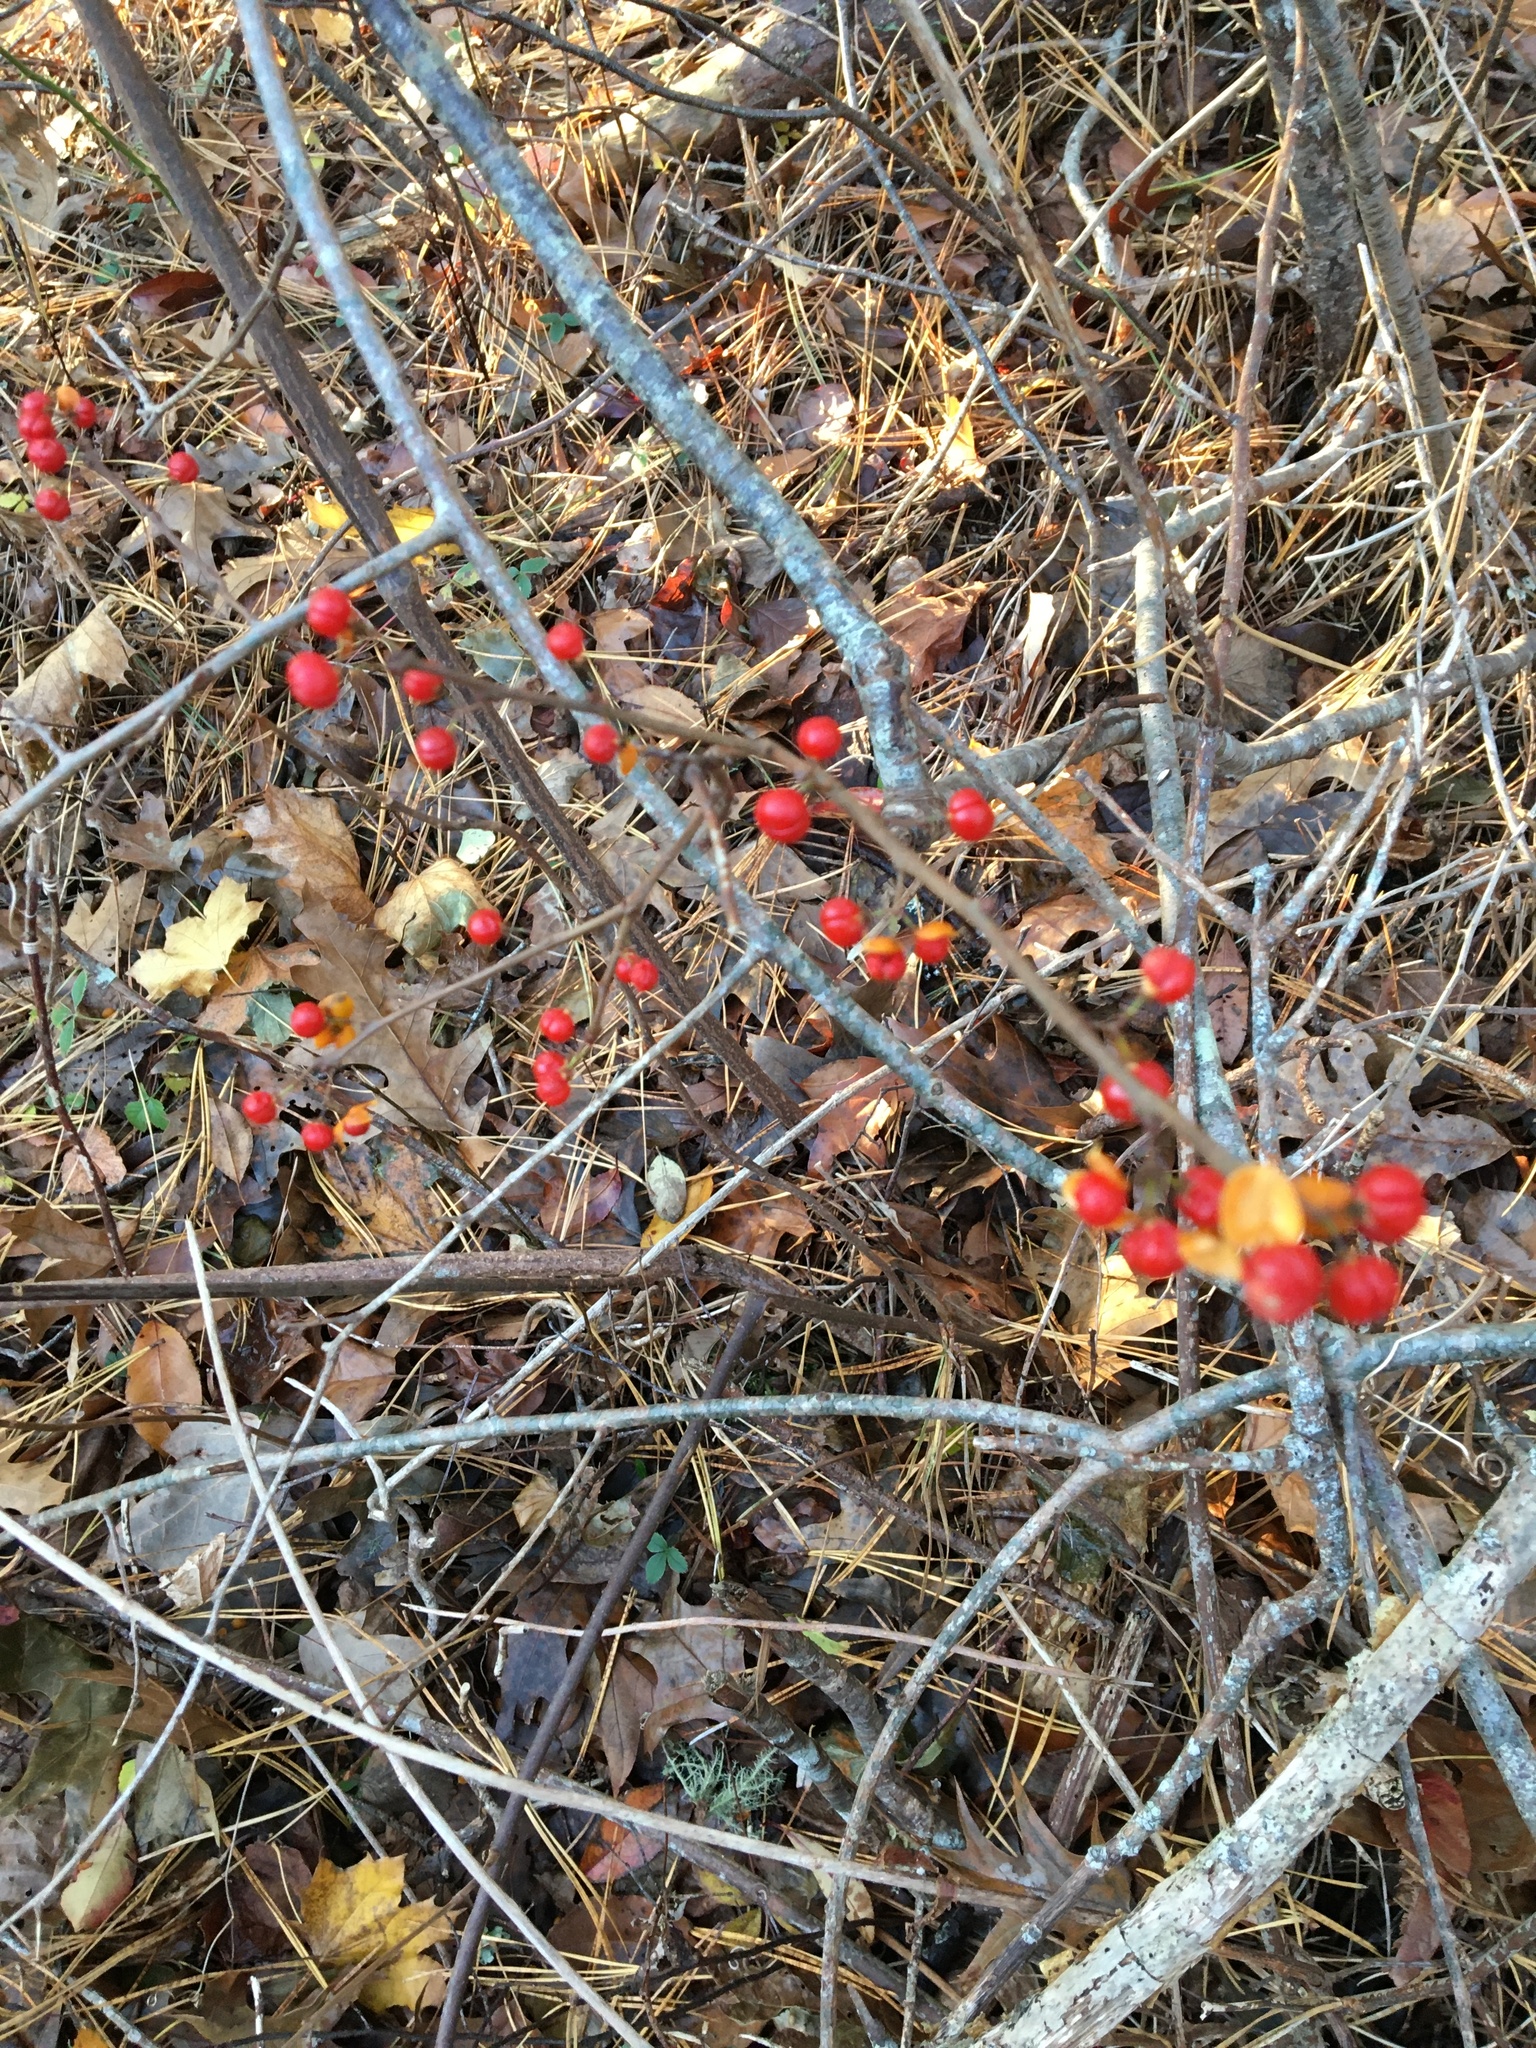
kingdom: Plantae
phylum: Tracheophyta
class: Magnoliopsida
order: Celastrales
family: Celastraceae
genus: Celastrus
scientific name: Celastrus orbiculatus
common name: Oriental bittersweet
